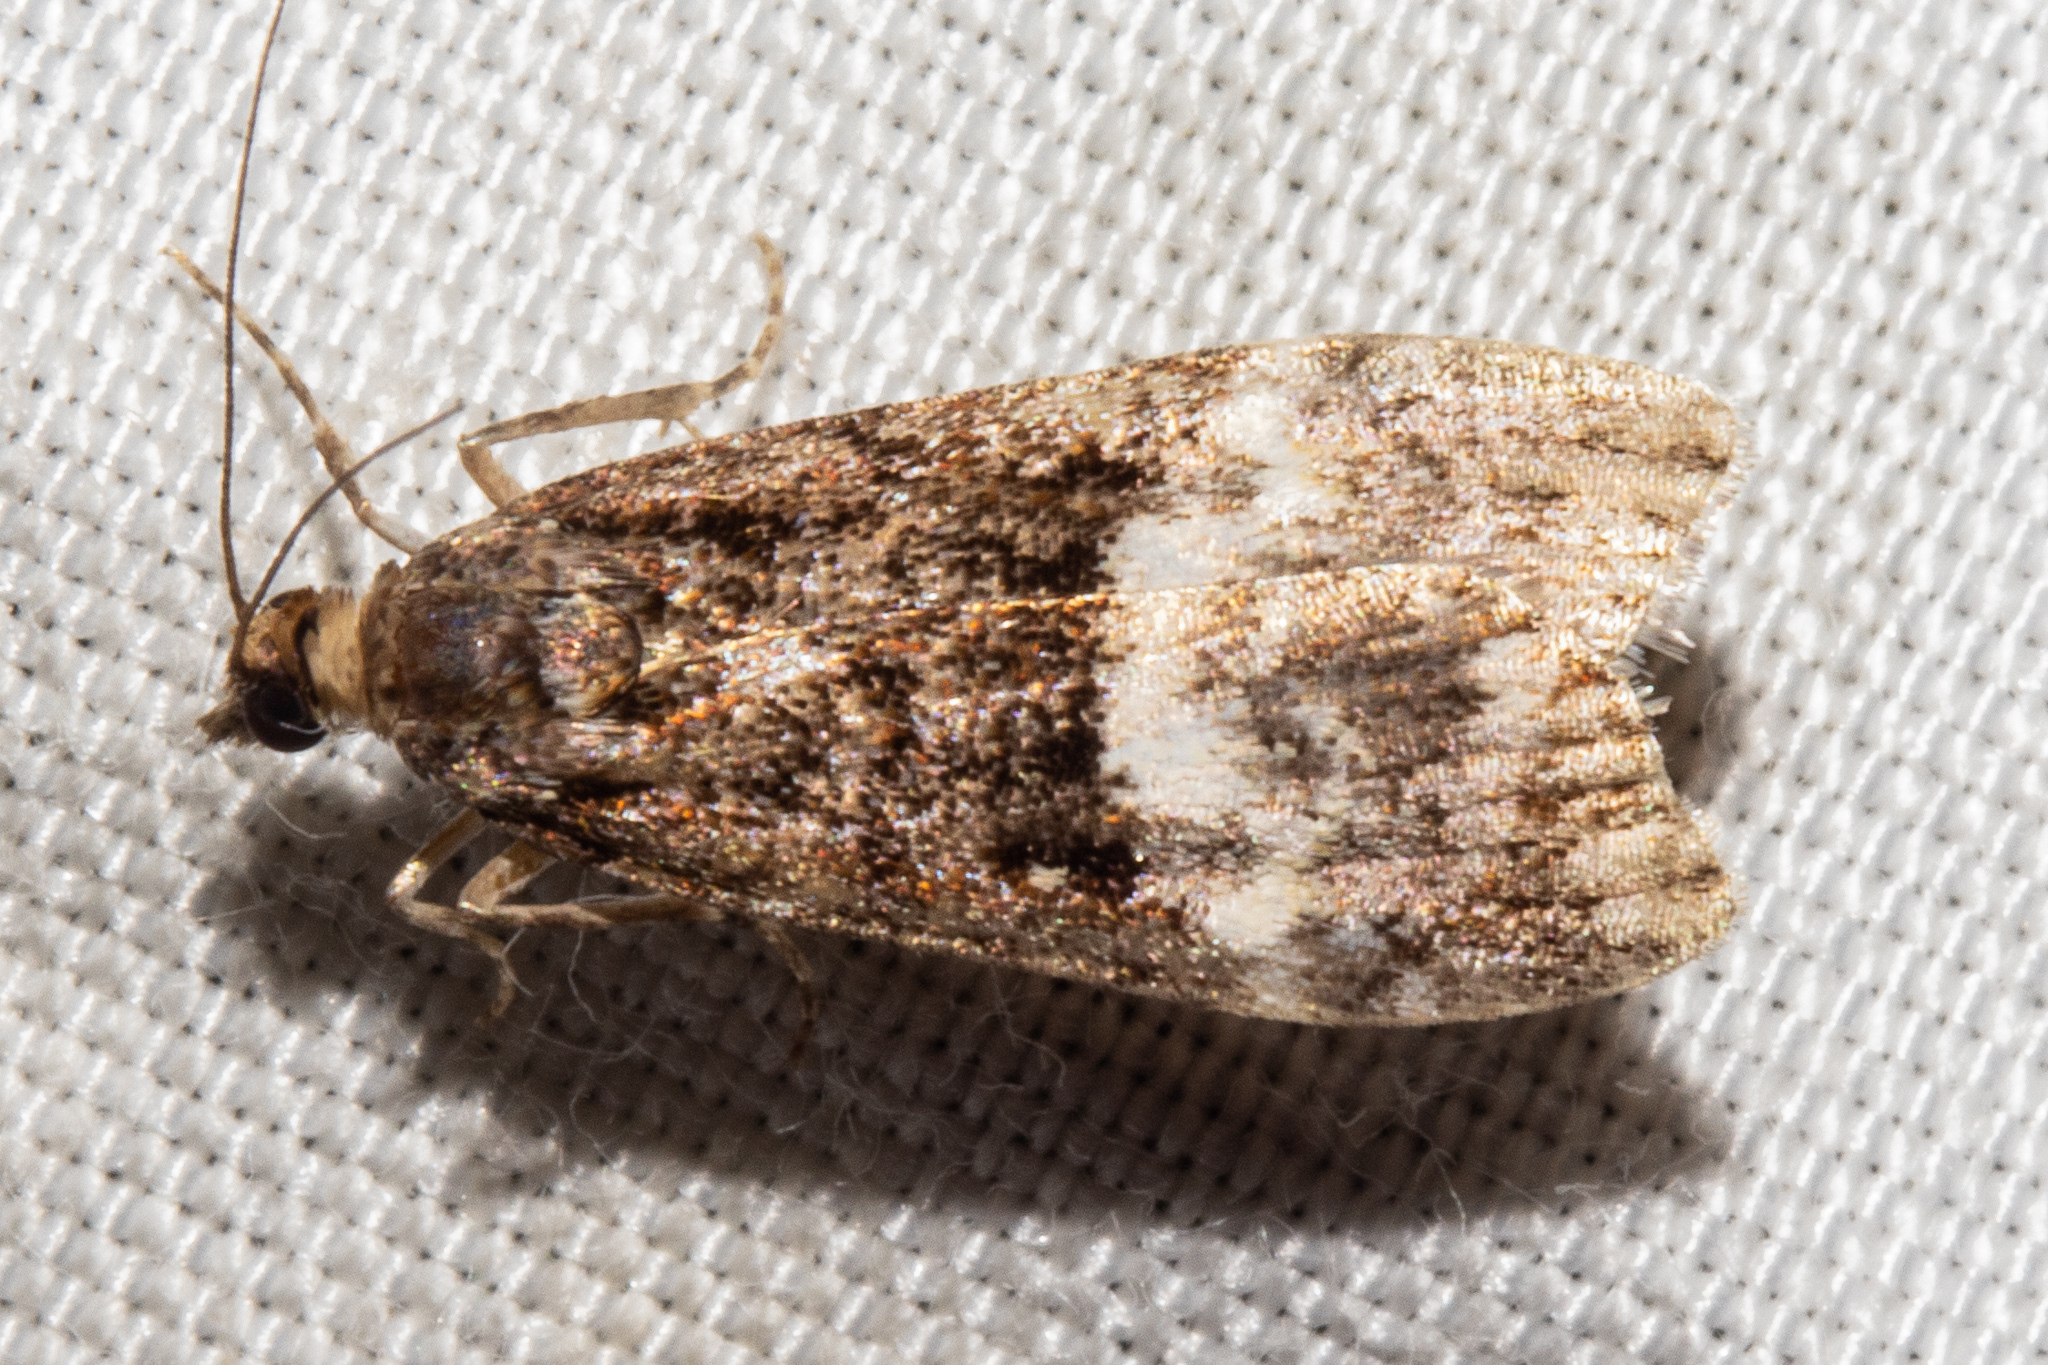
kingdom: Animalia
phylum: Arthropoda
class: Insecta
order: Lepidoptera
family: Crambidae
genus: Scoparia
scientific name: Scoparia minusculalis
